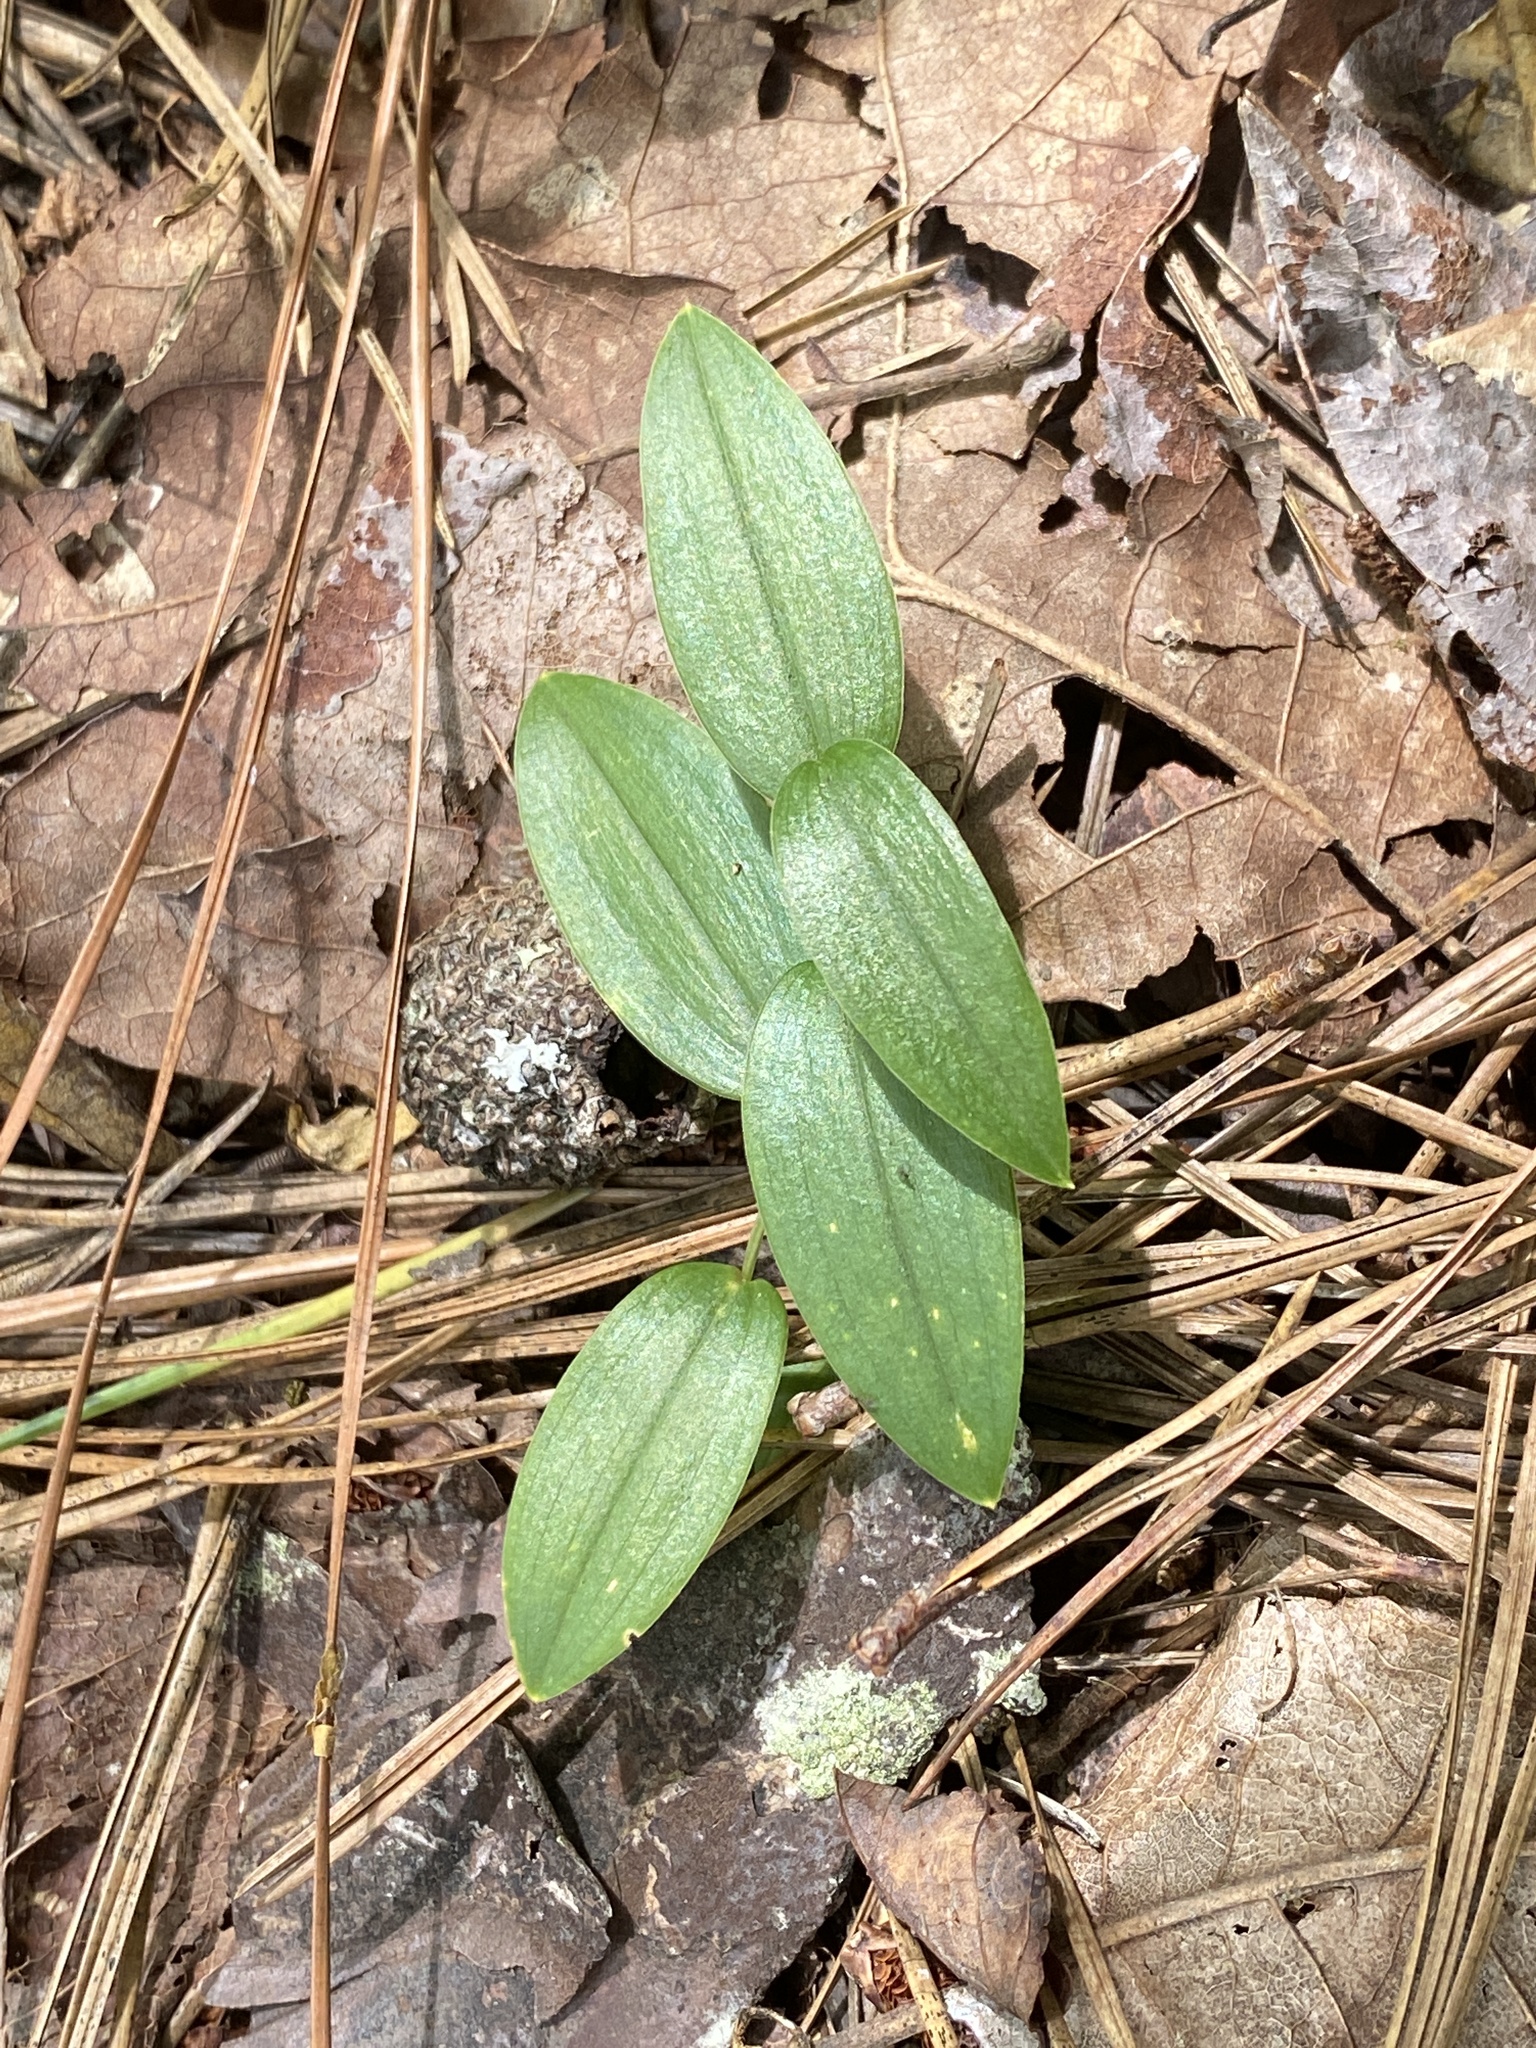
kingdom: Plantae
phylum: Tracheophyta
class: Liliopsida
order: Liliales
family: Colchicaceae
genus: Uvularia
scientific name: Uvularia puberula
